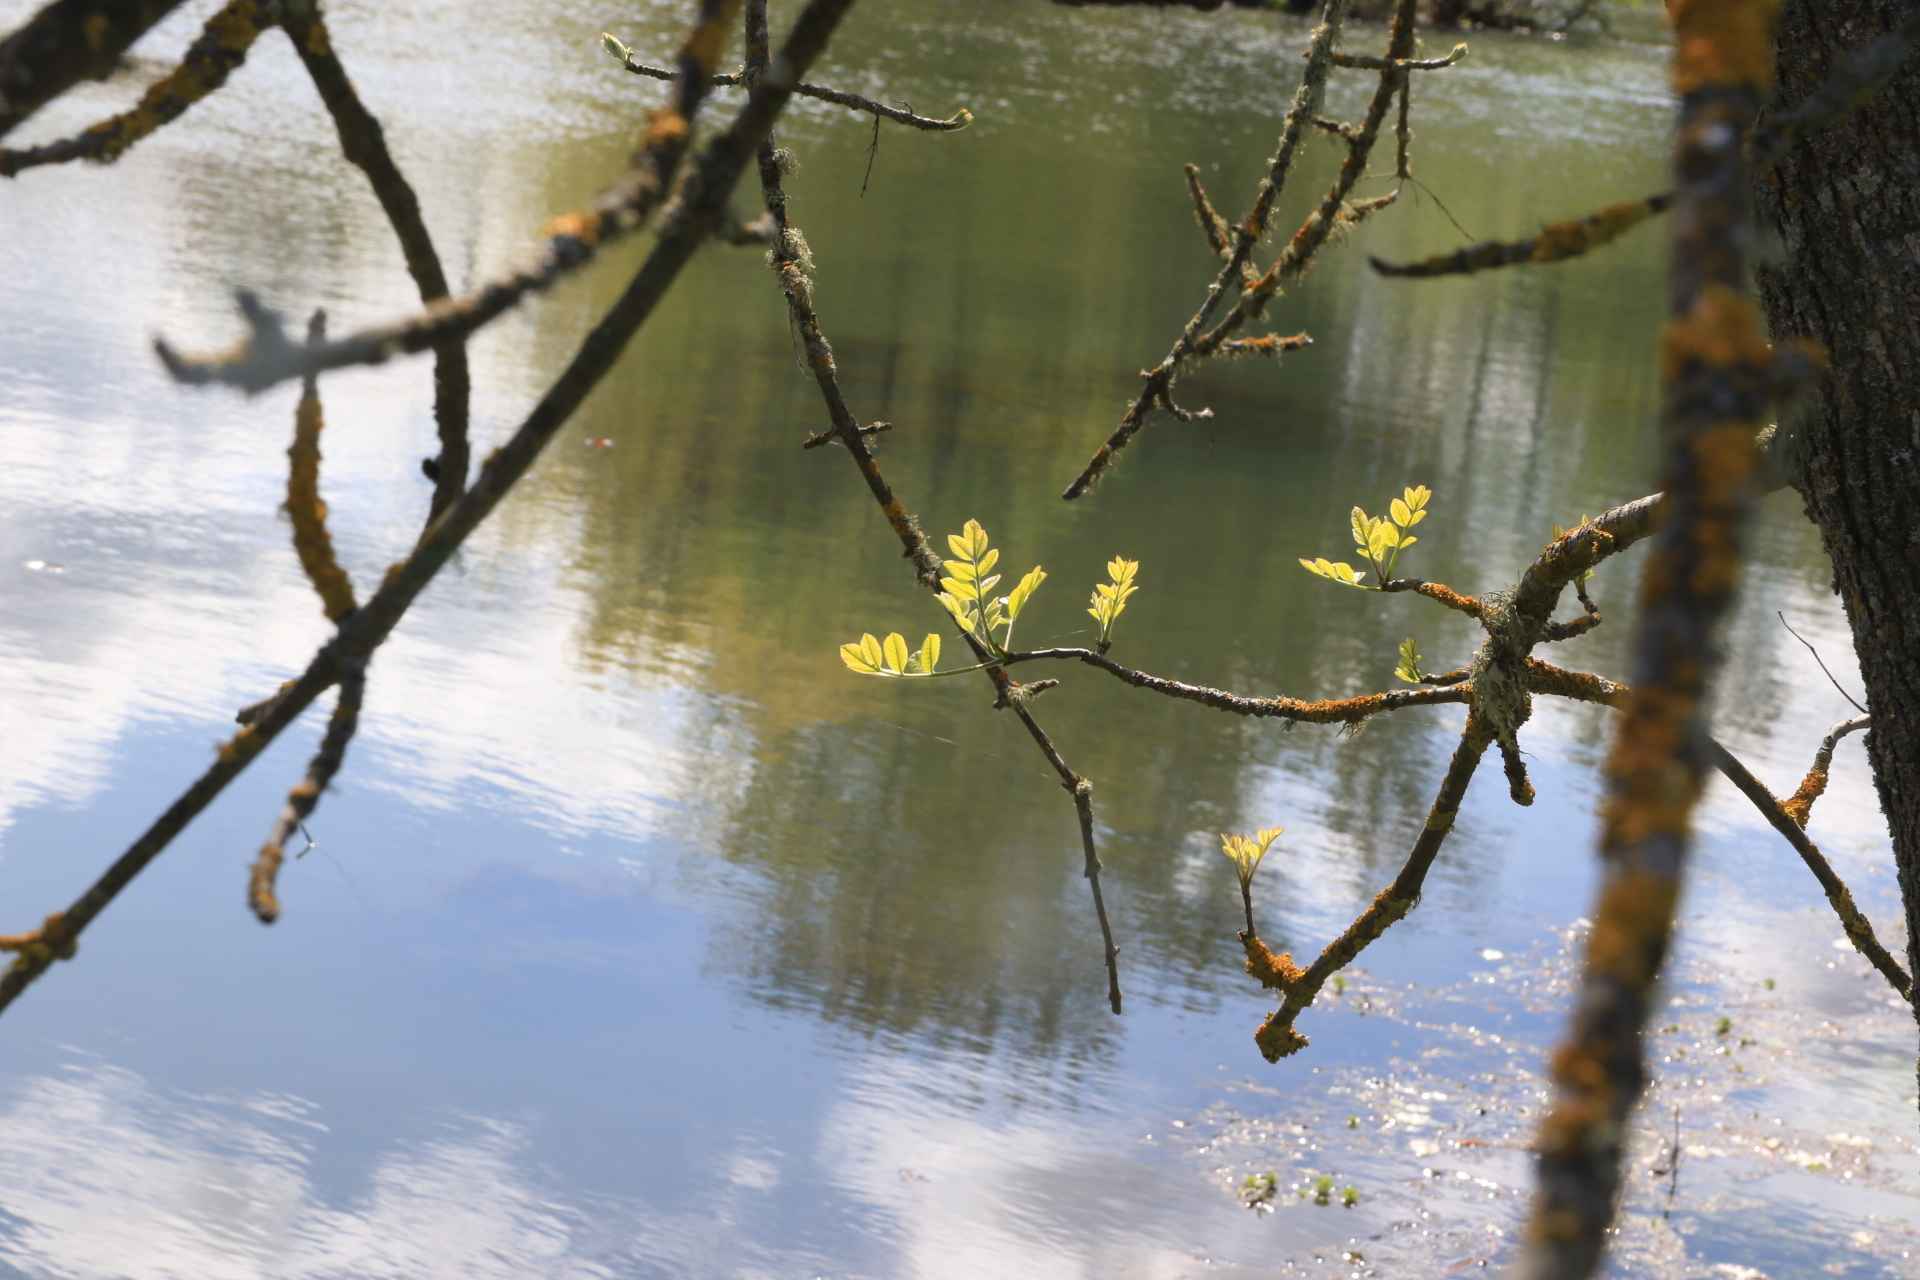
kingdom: Plantae
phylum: Tracheophyta
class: Magnoliopsida
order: Lamiales
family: Oleaceae
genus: Fraxinus
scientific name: Fraxinus latifolia
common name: Oregon ash
